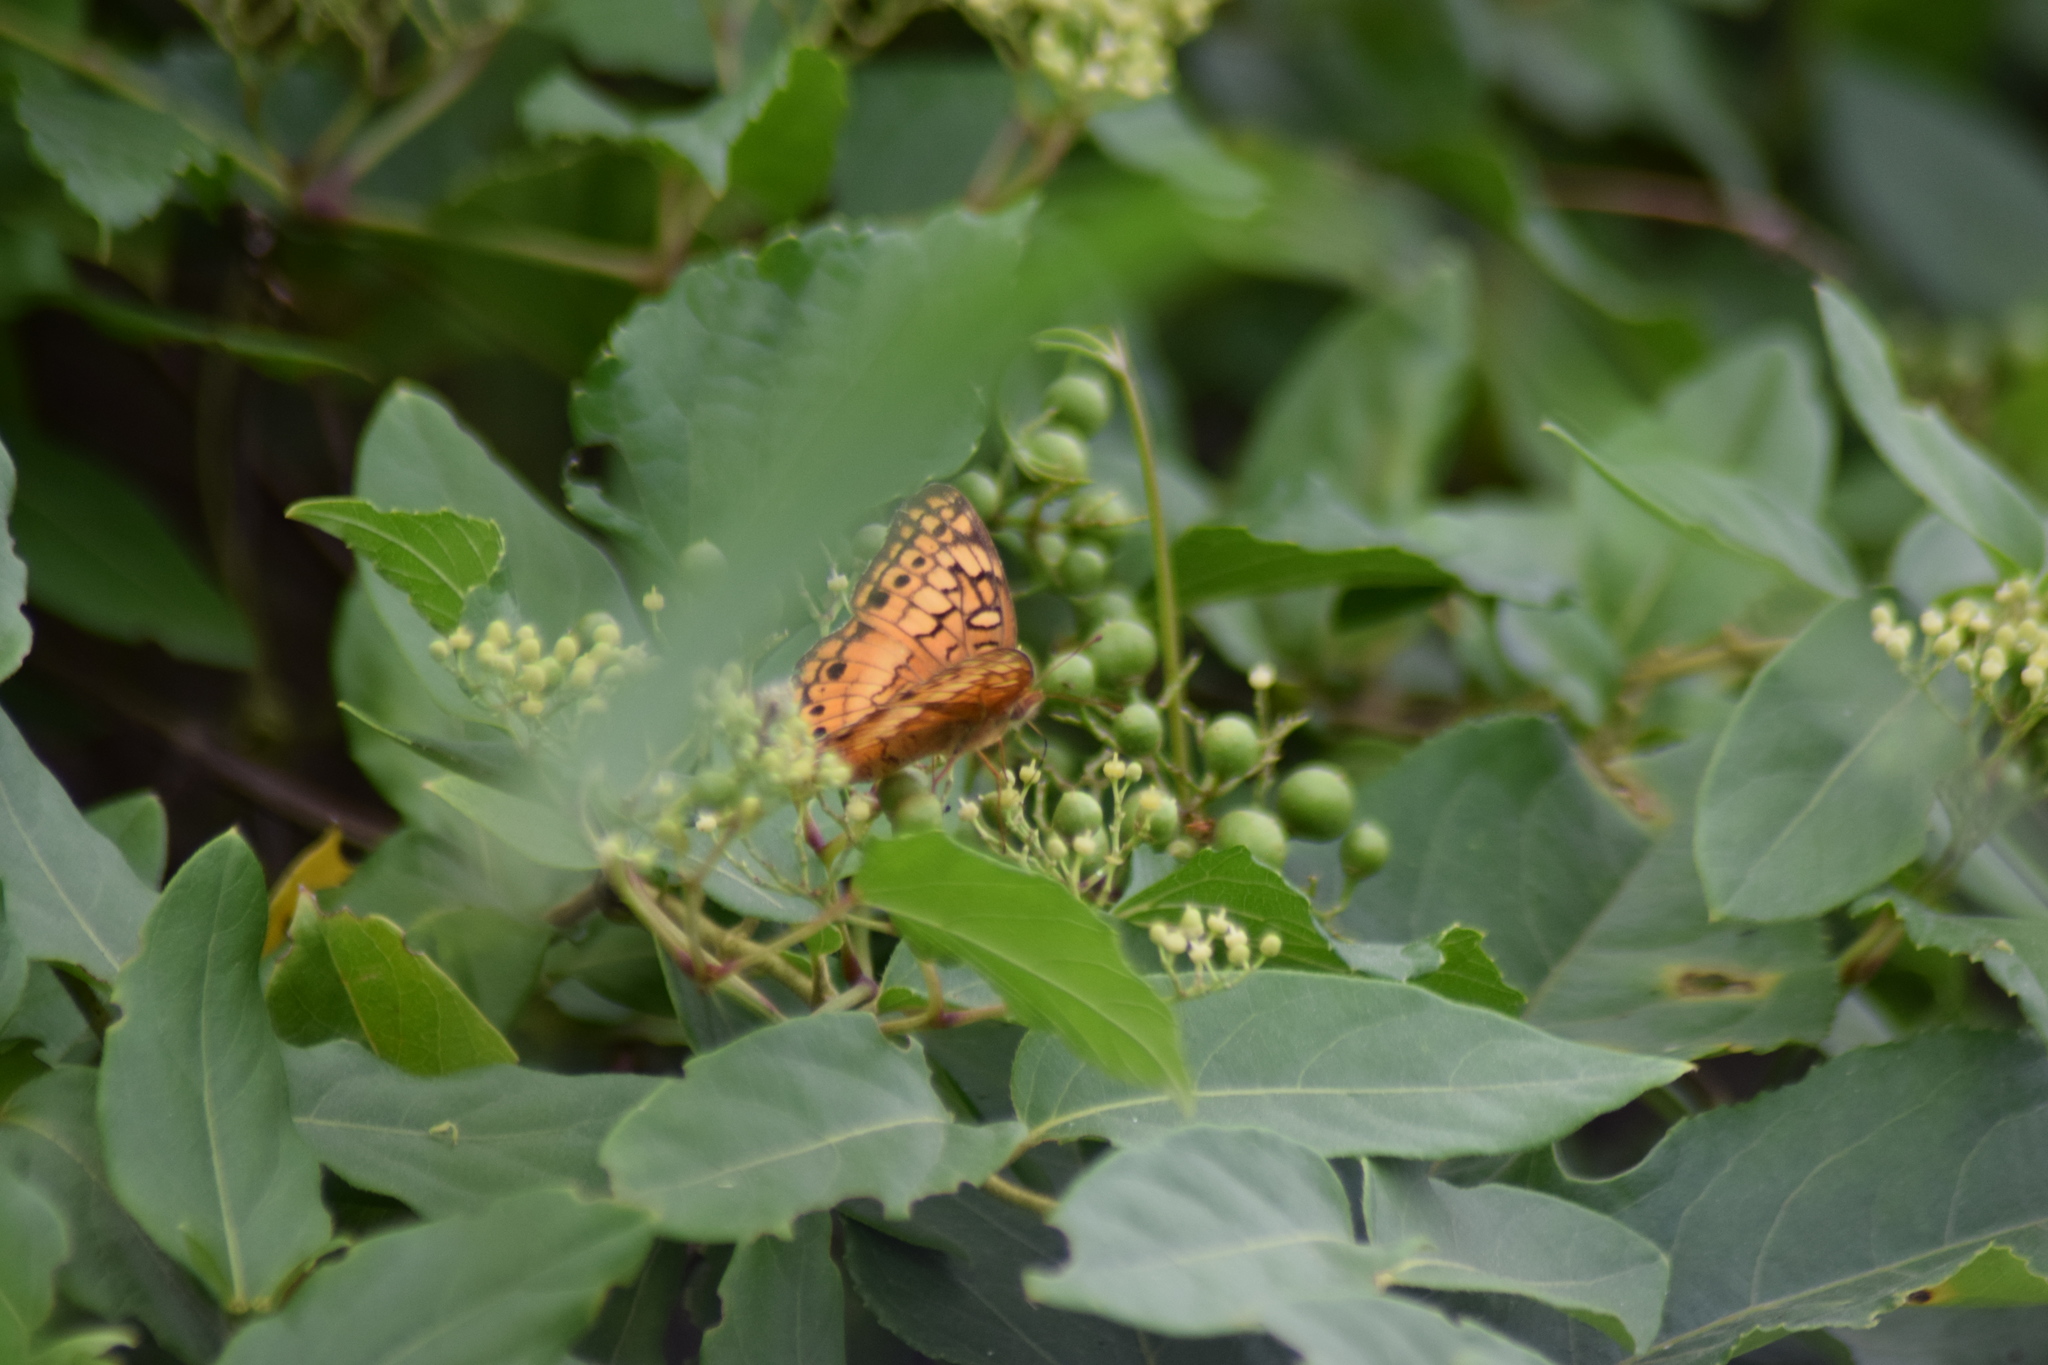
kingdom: Animalia
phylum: Arthropoda
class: Insecta
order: Lepidoptera
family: Nymphalidae
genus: Euptoieta
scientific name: Euptoieta claudia
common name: Variegated fritillary
